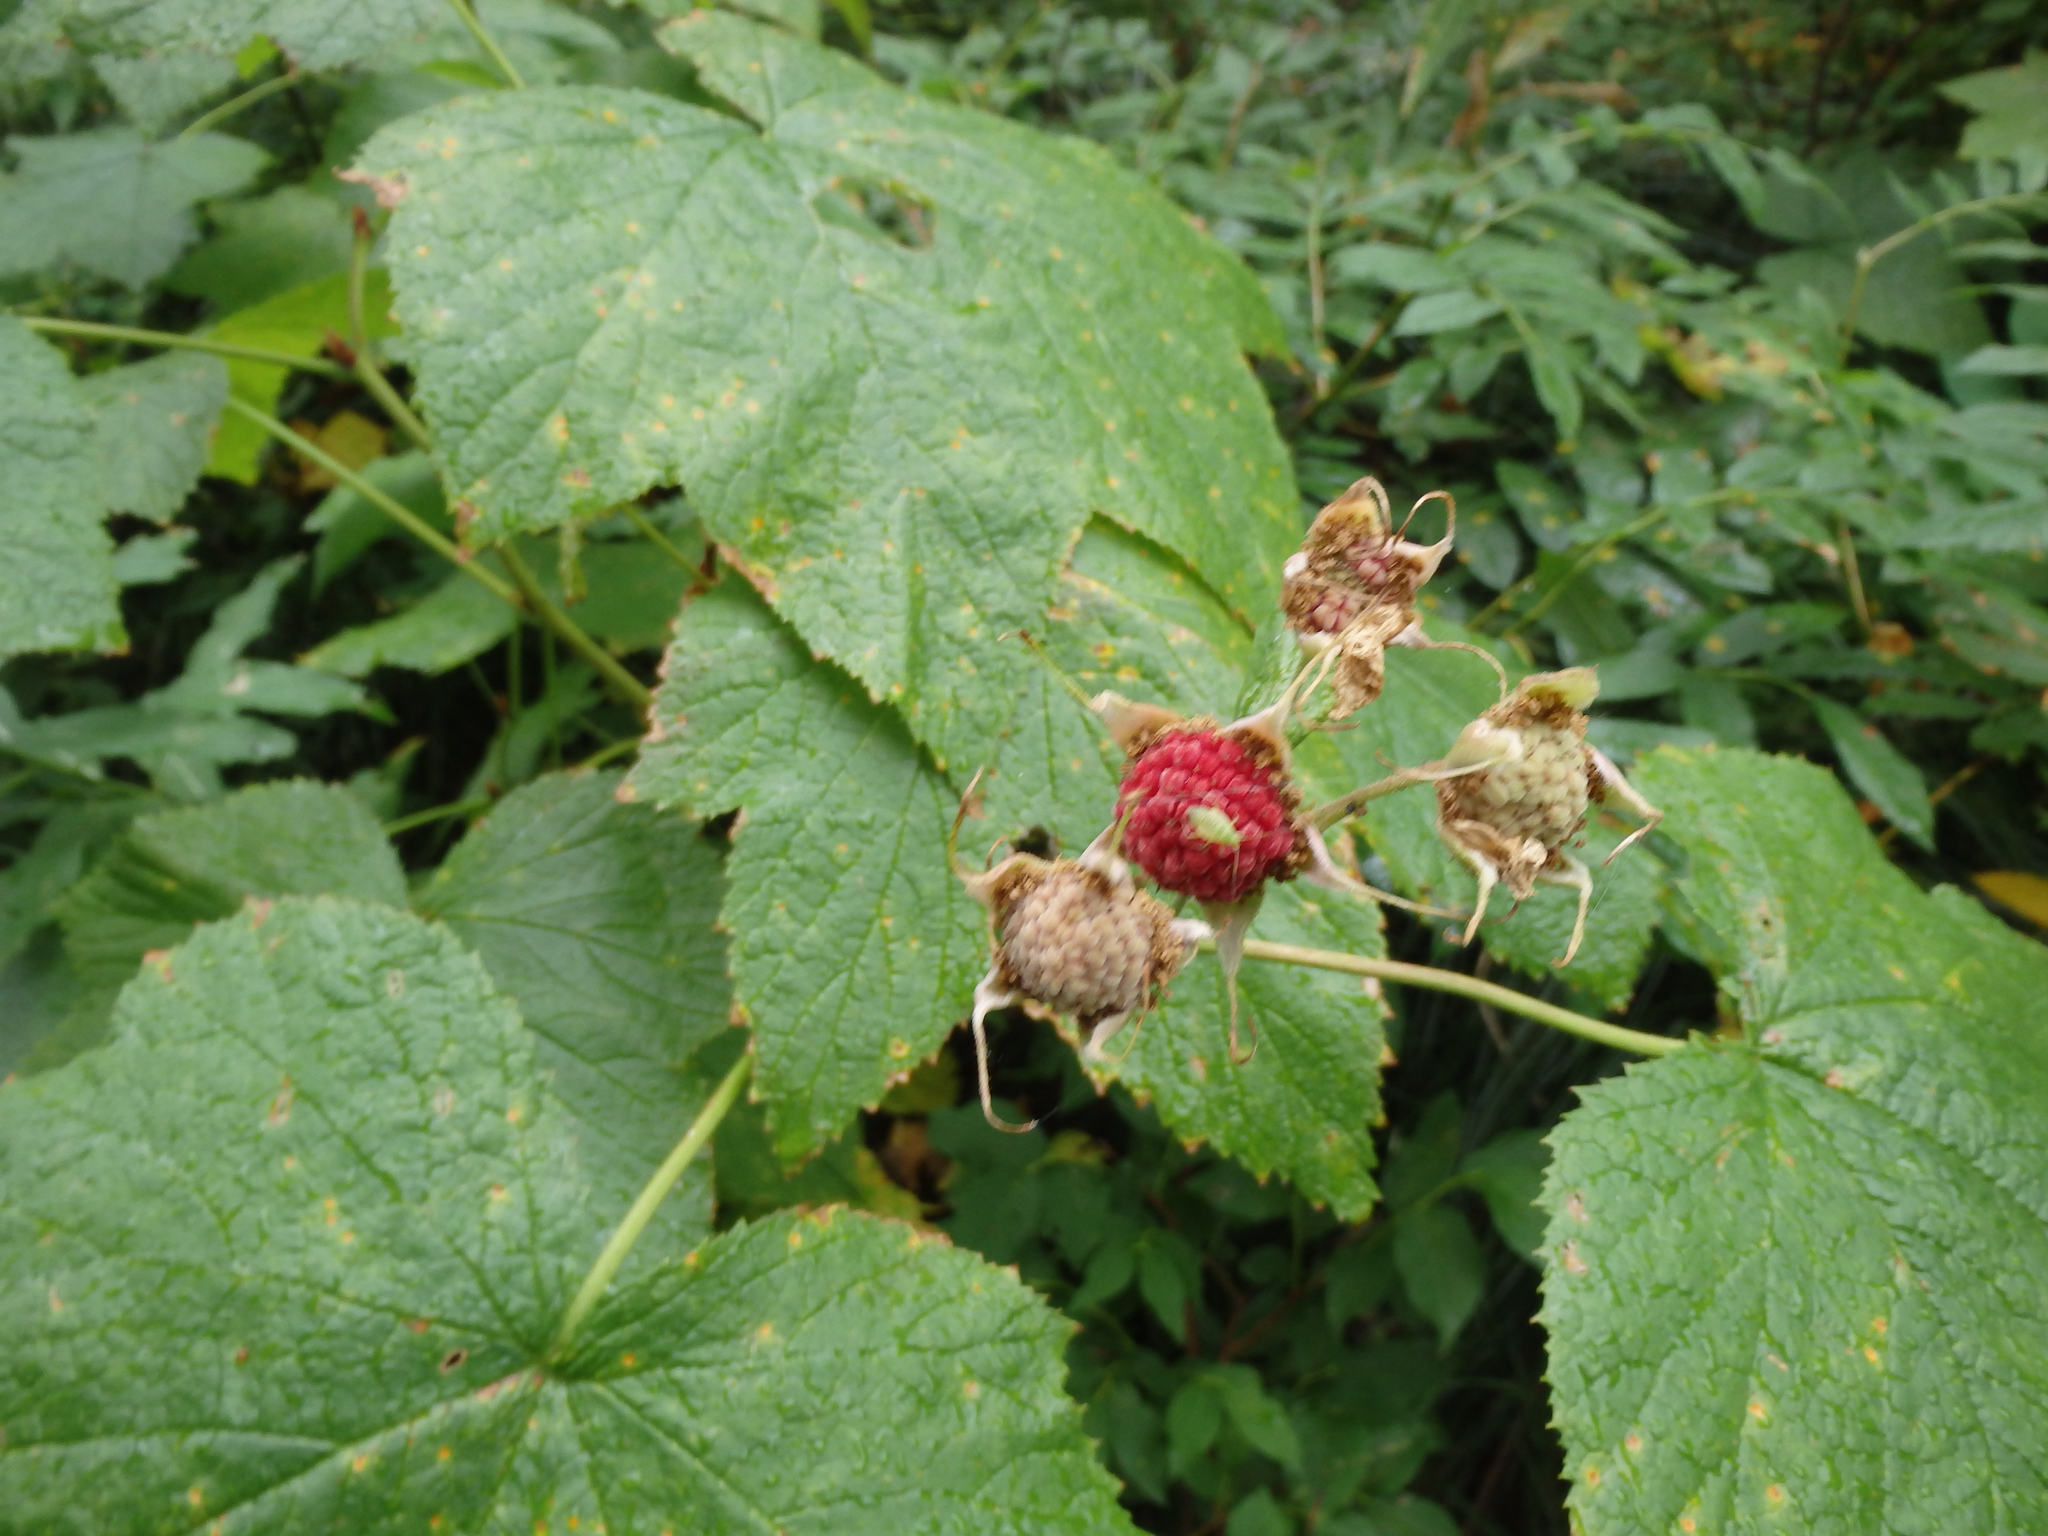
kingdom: Plantae
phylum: Tracheophyta
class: Magnoliopsida
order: Rosales
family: Rosaceae
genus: Rubus
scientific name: Rubus parviflorus
